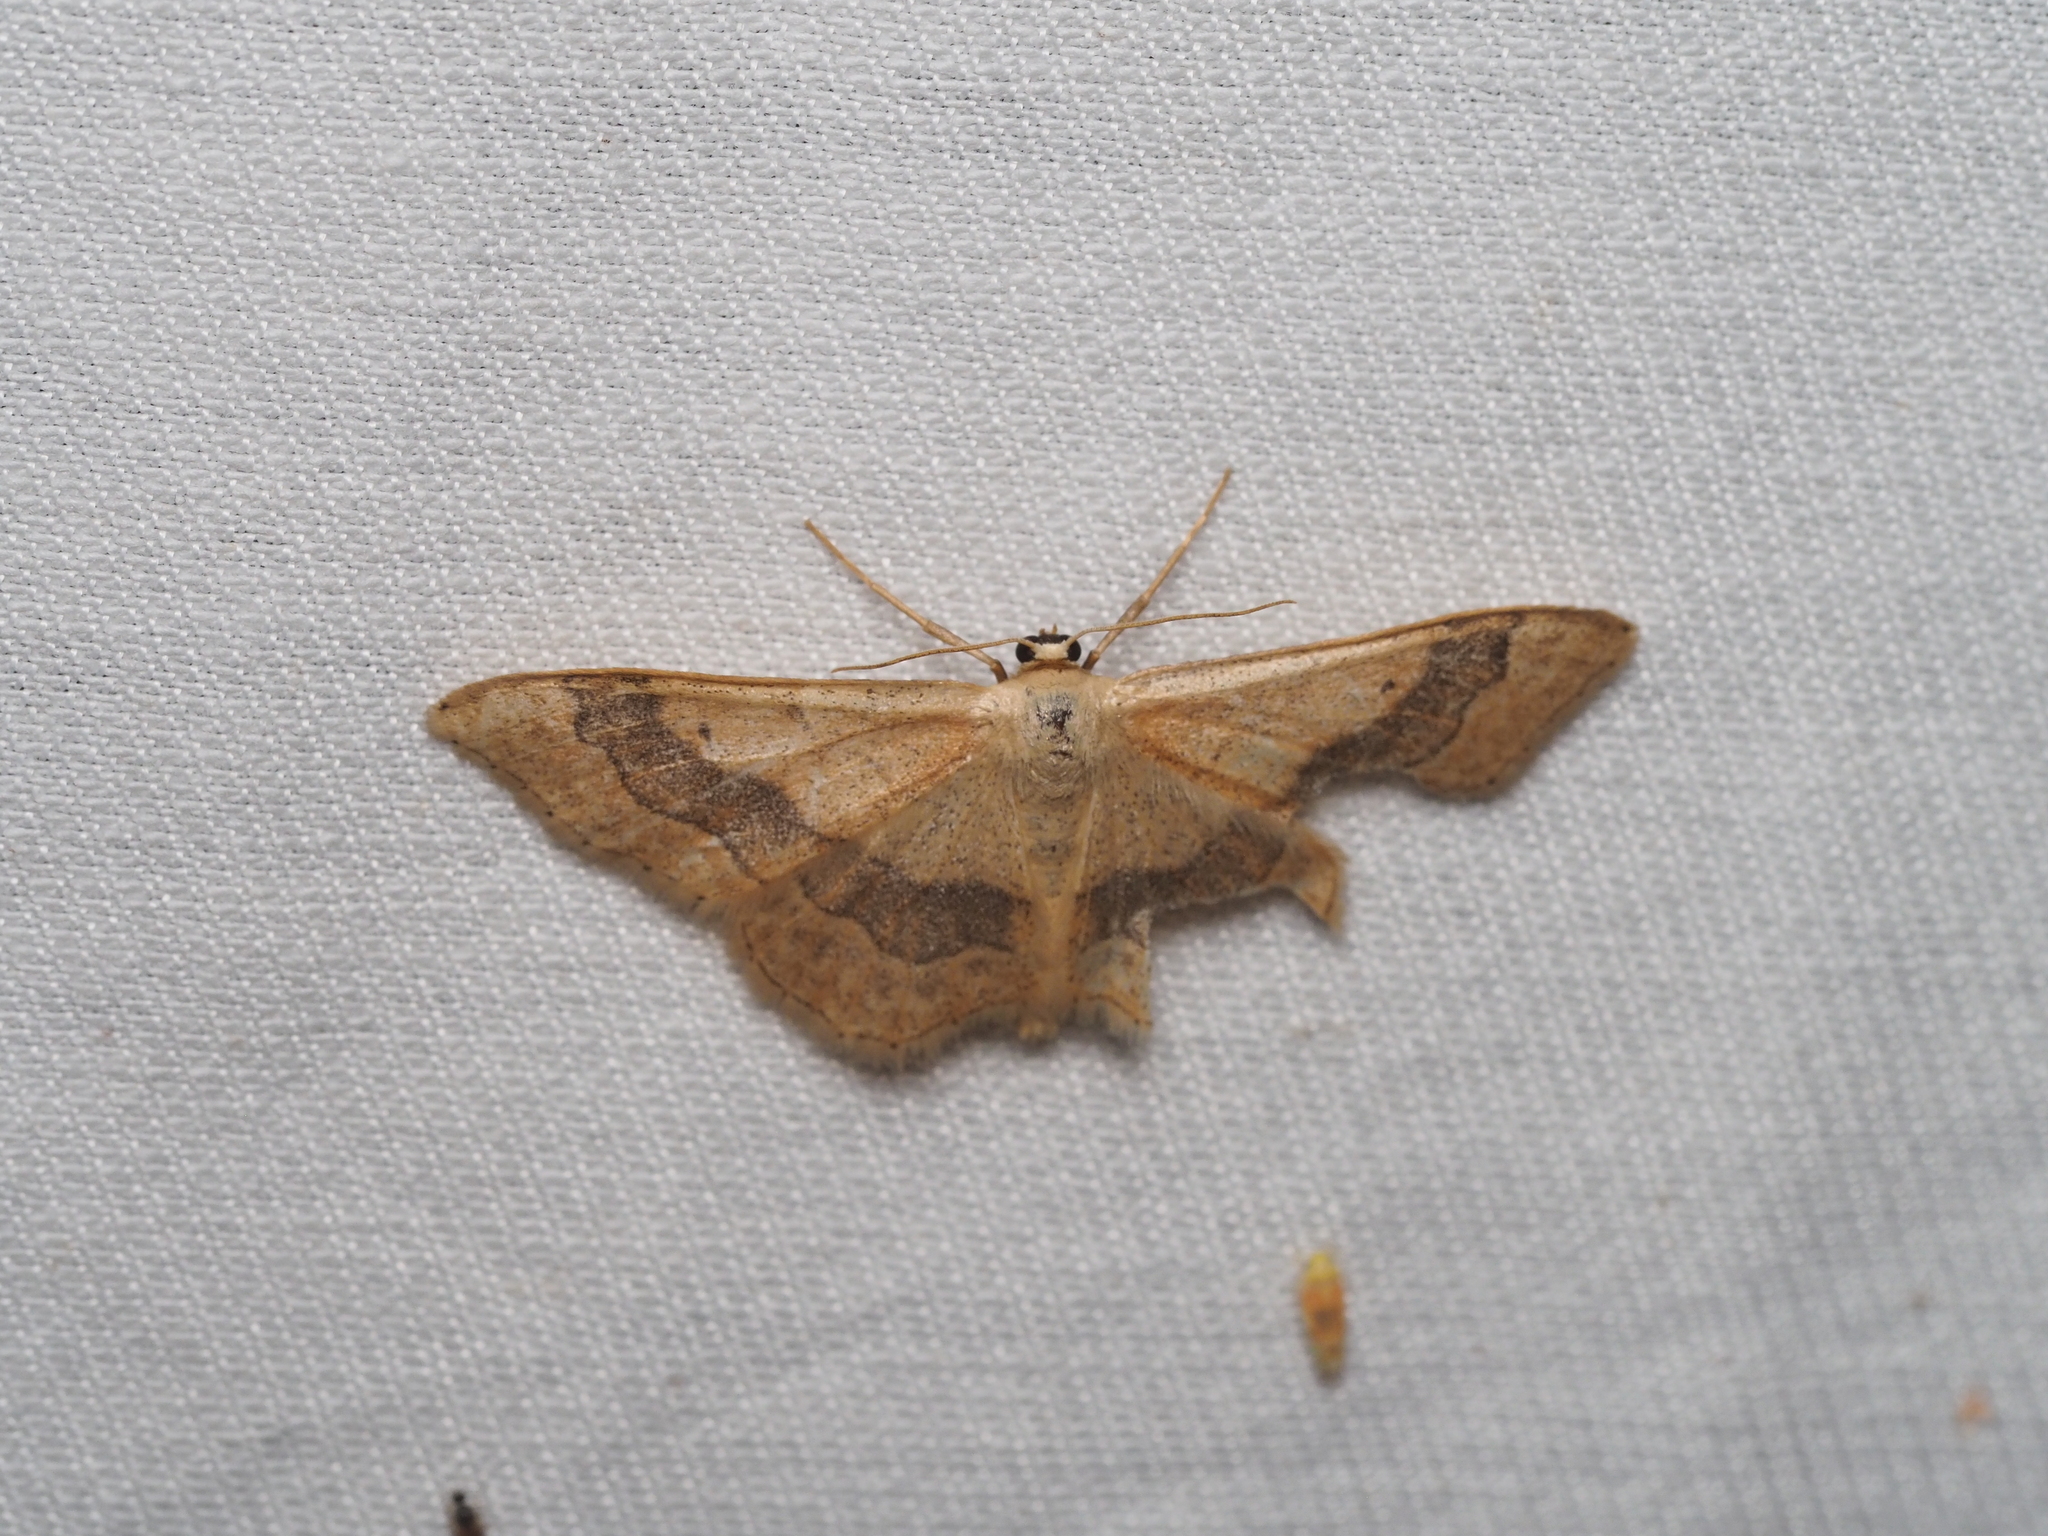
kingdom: Animalia
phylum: Arthropoda
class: Insecta
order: Lepidoptera
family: Geometridae
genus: Idaea
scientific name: Idaea aversata
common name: Riband wave
